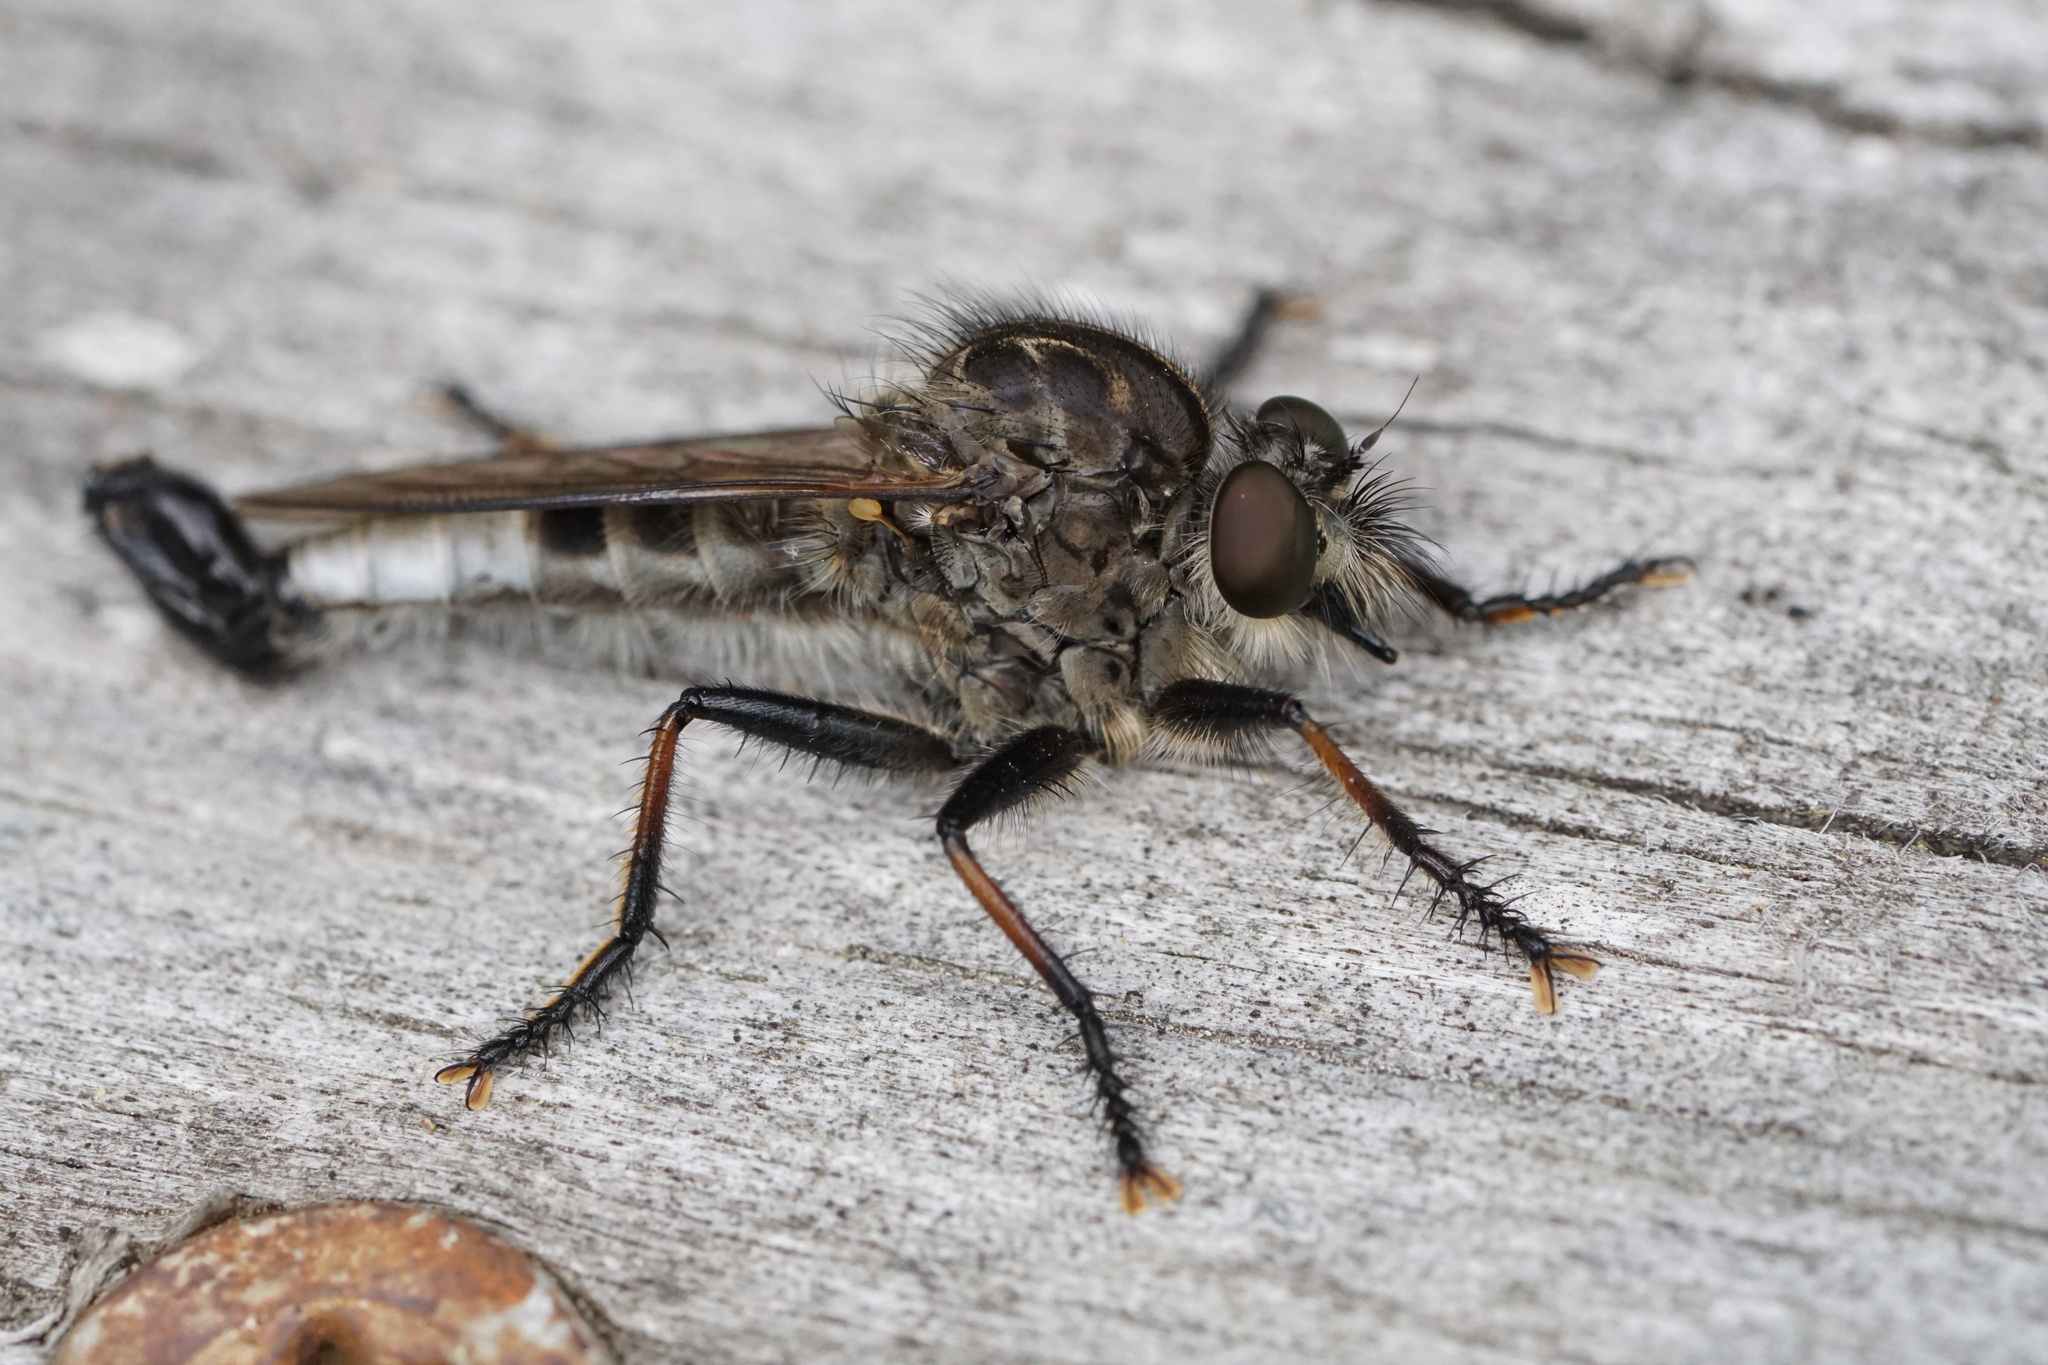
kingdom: Animalia
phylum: Arthropoda
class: Insecta
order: Diptera
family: Asilidae
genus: Efferia
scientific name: Efferia aestuans
